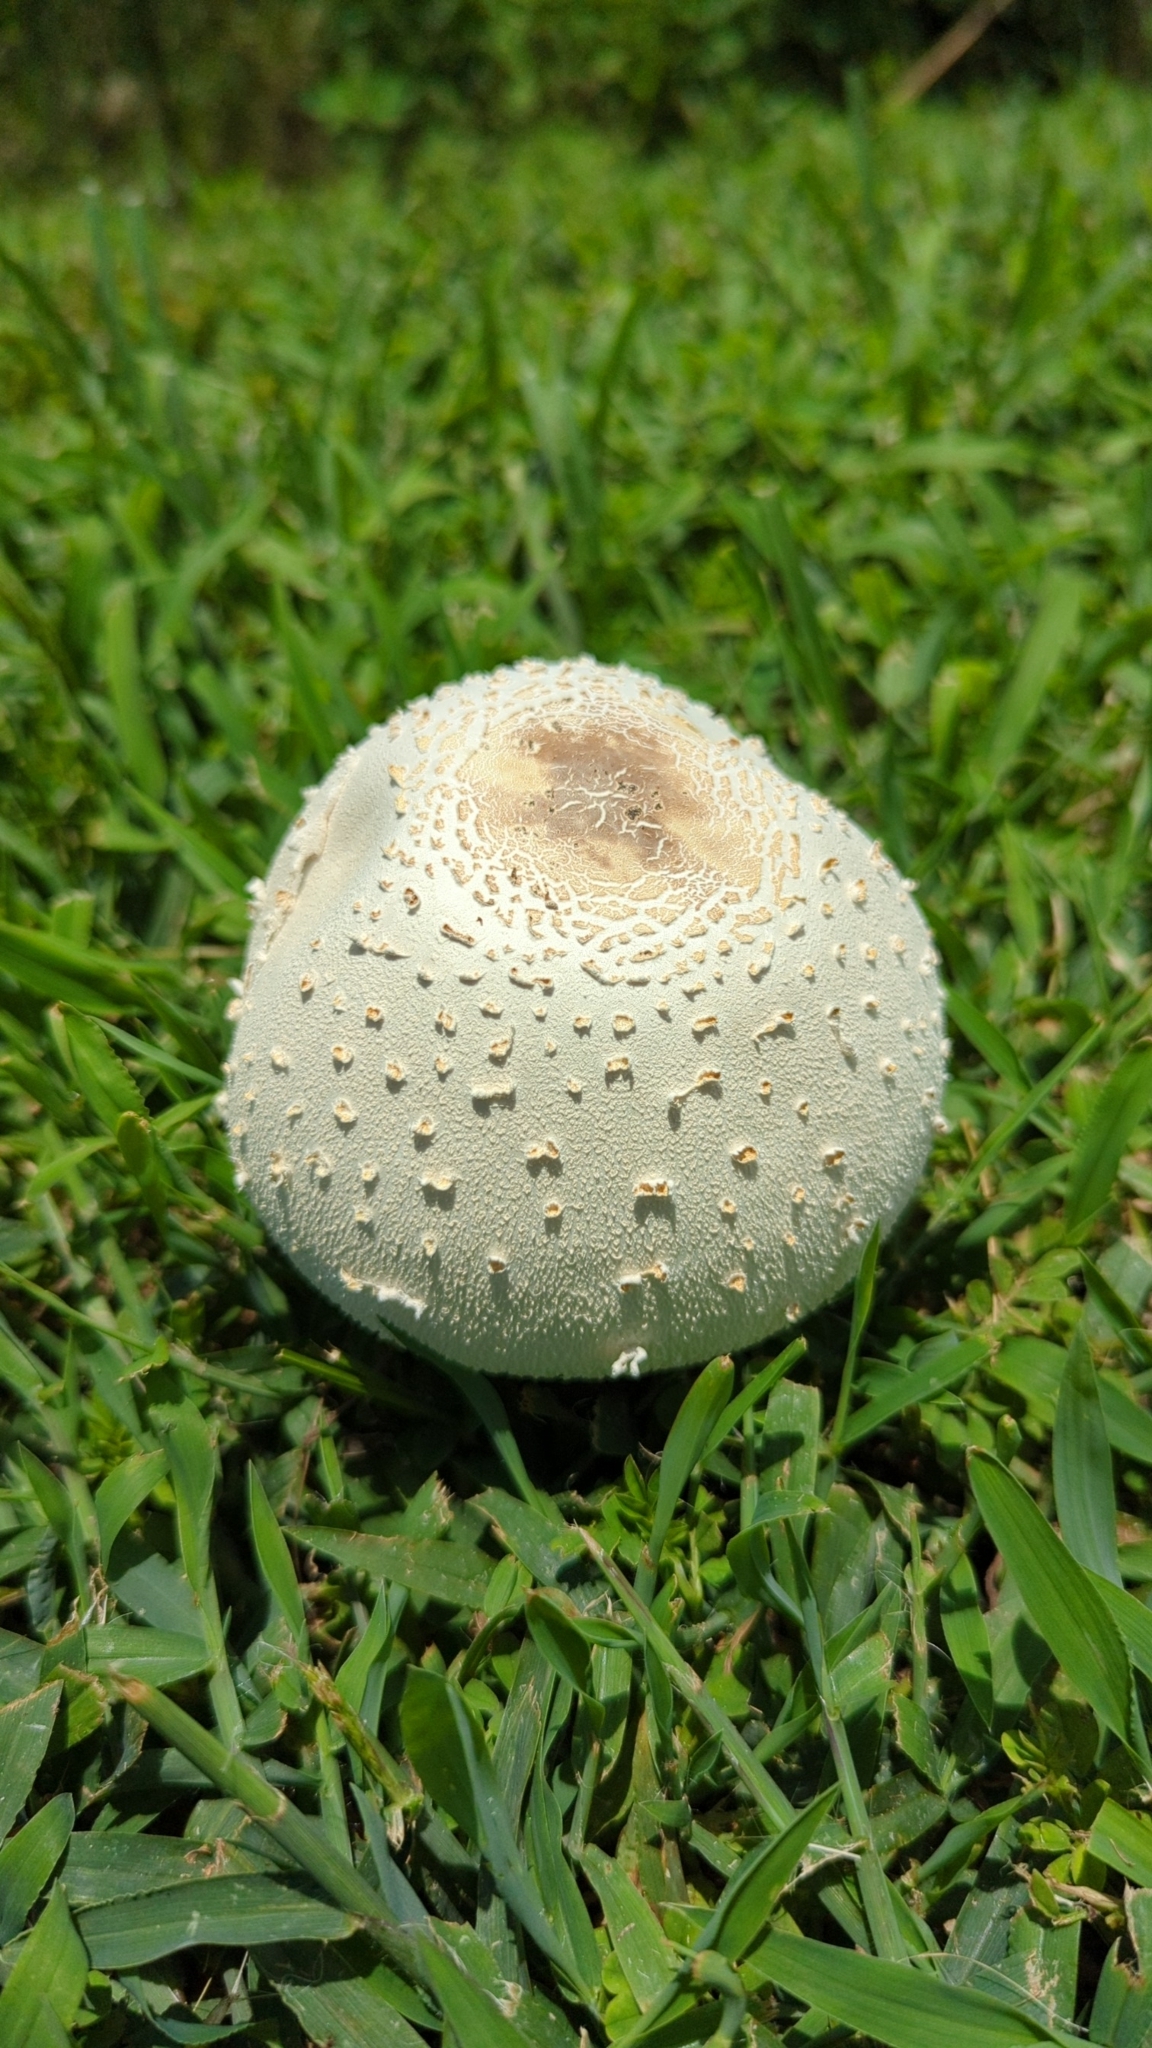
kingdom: Fungi
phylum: Basidiomycota
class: Agaricomycetes
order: Agaricales
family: Agaricaceae
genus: Chlorophyllum
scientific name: Chlorophyllum molybdites
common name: False parasol
